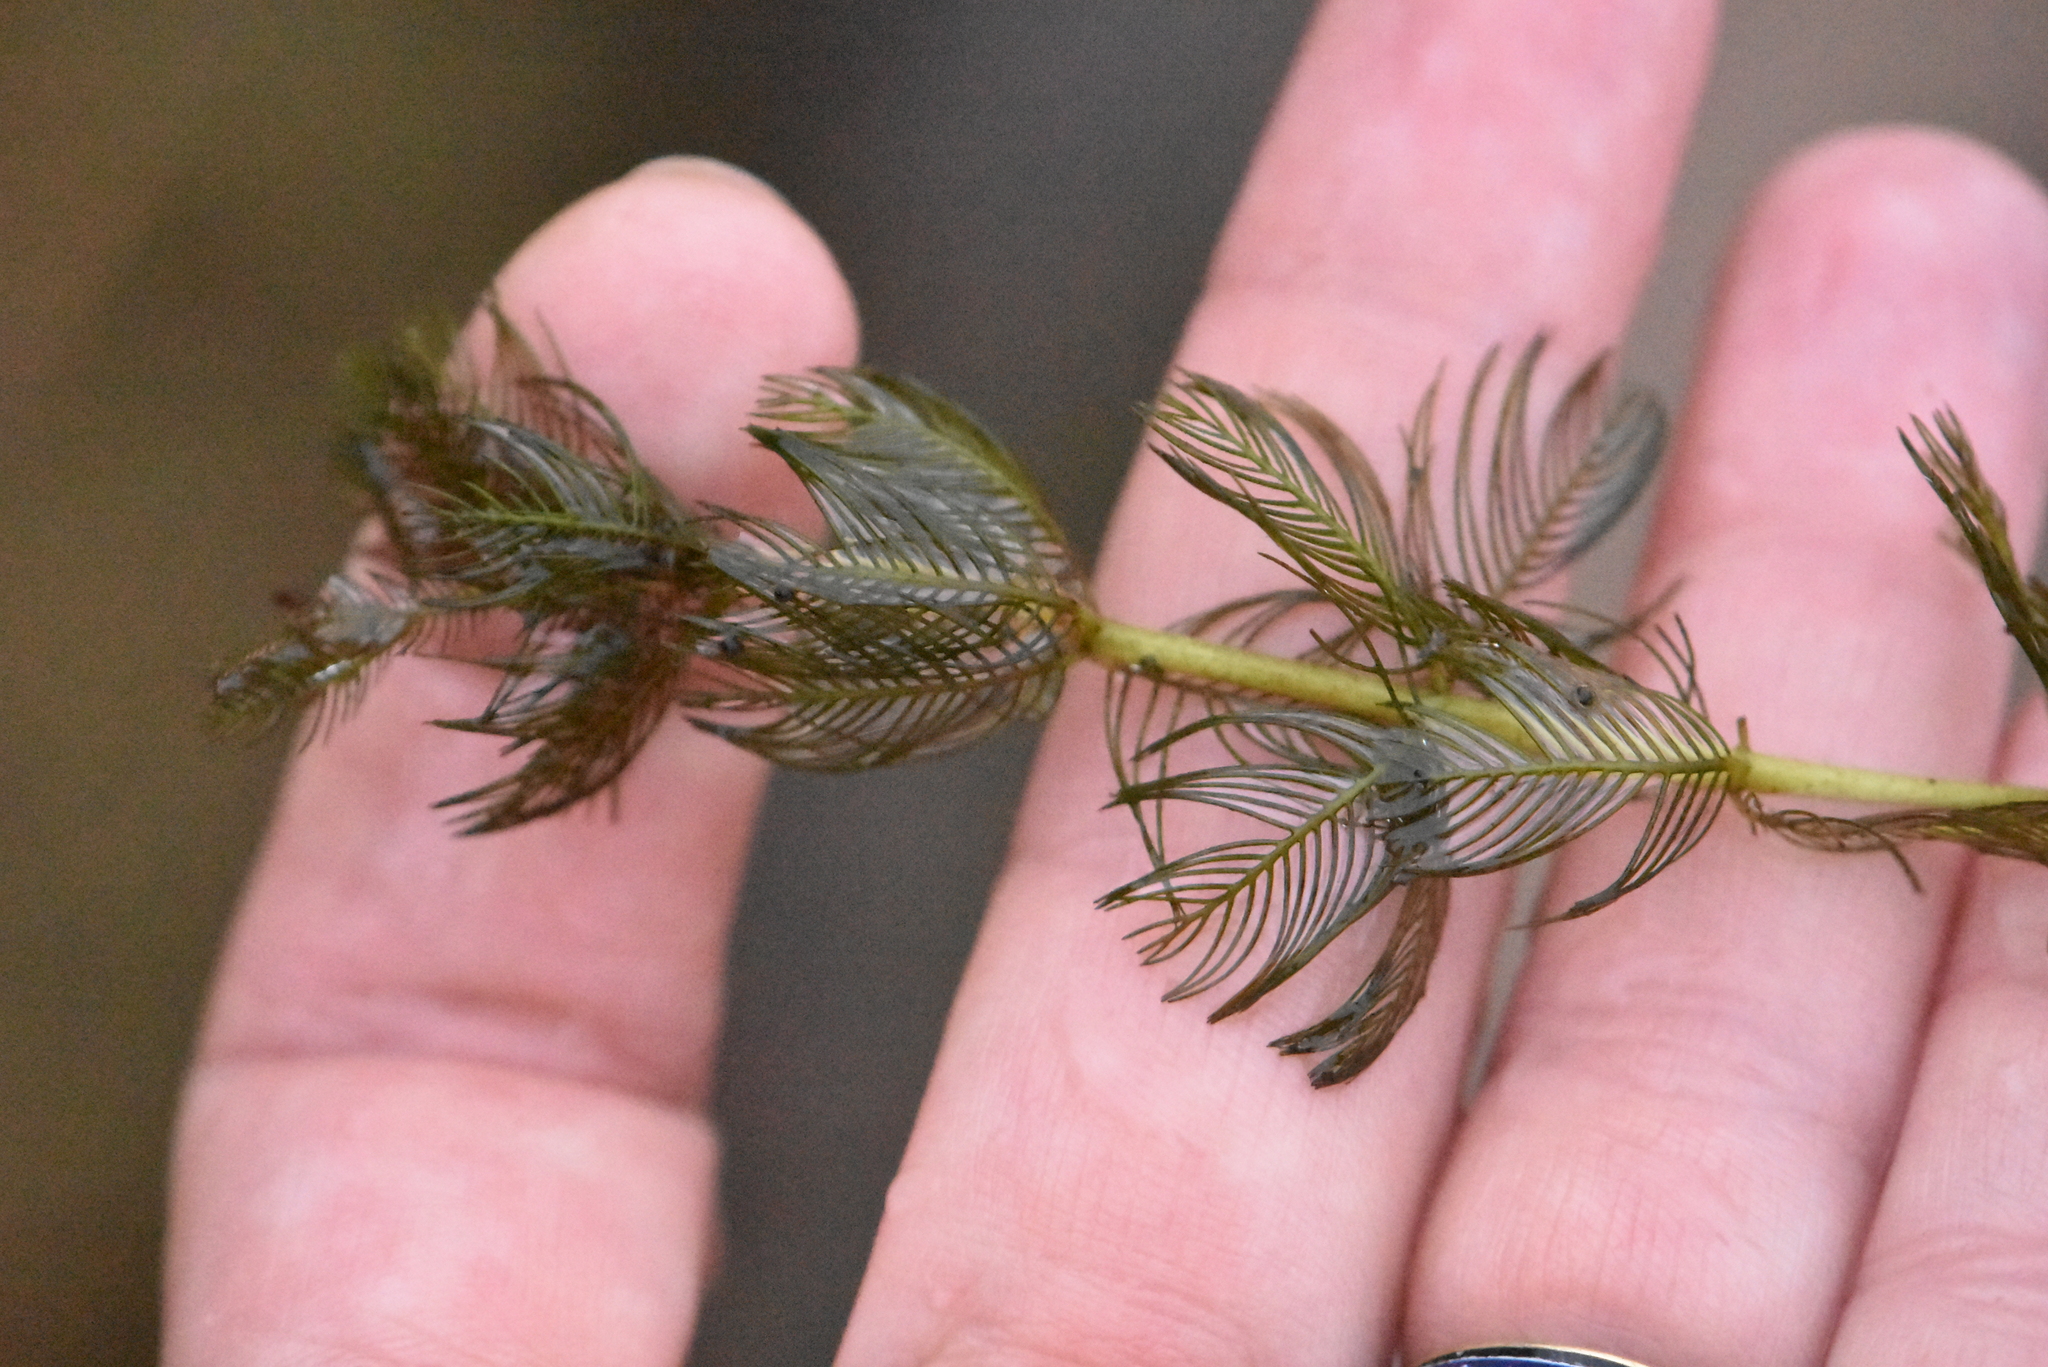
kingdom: Plantae
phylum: Tracheophyta
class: Magnoliopsida
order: Saxifragales
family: Haloragaceae
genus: Myriophyllum
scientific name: Myriophyllum spicatum
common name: Spiked water-milfoil
